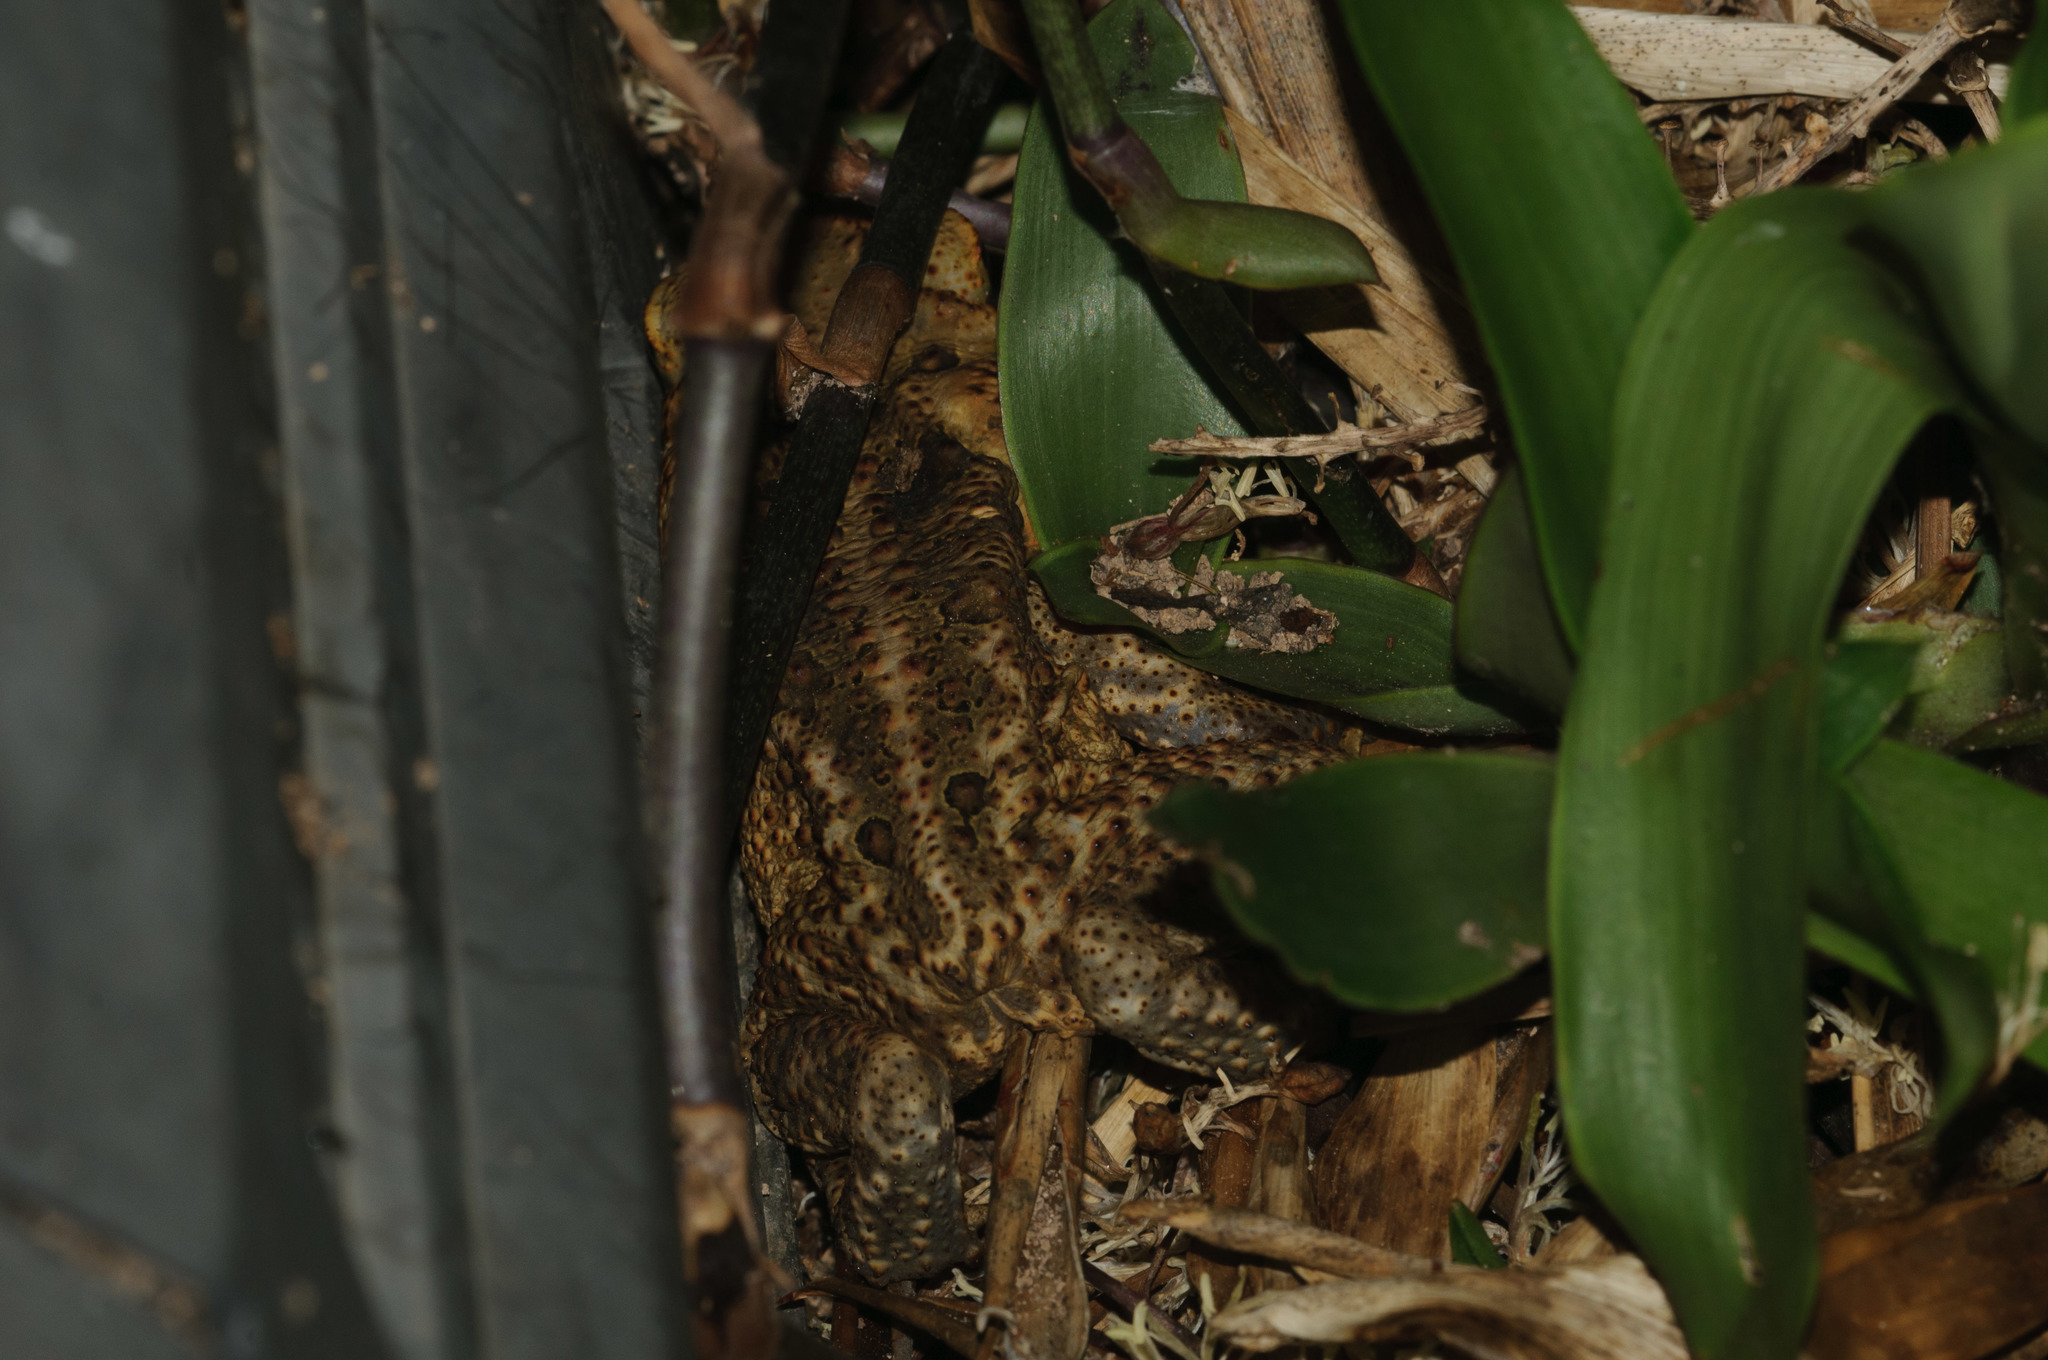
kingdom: Animalia
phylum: Chordata
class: Amphibia
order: Anura
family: Bufonidae
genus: Rhinella
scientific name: Rhinella marina
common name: Cane toad
